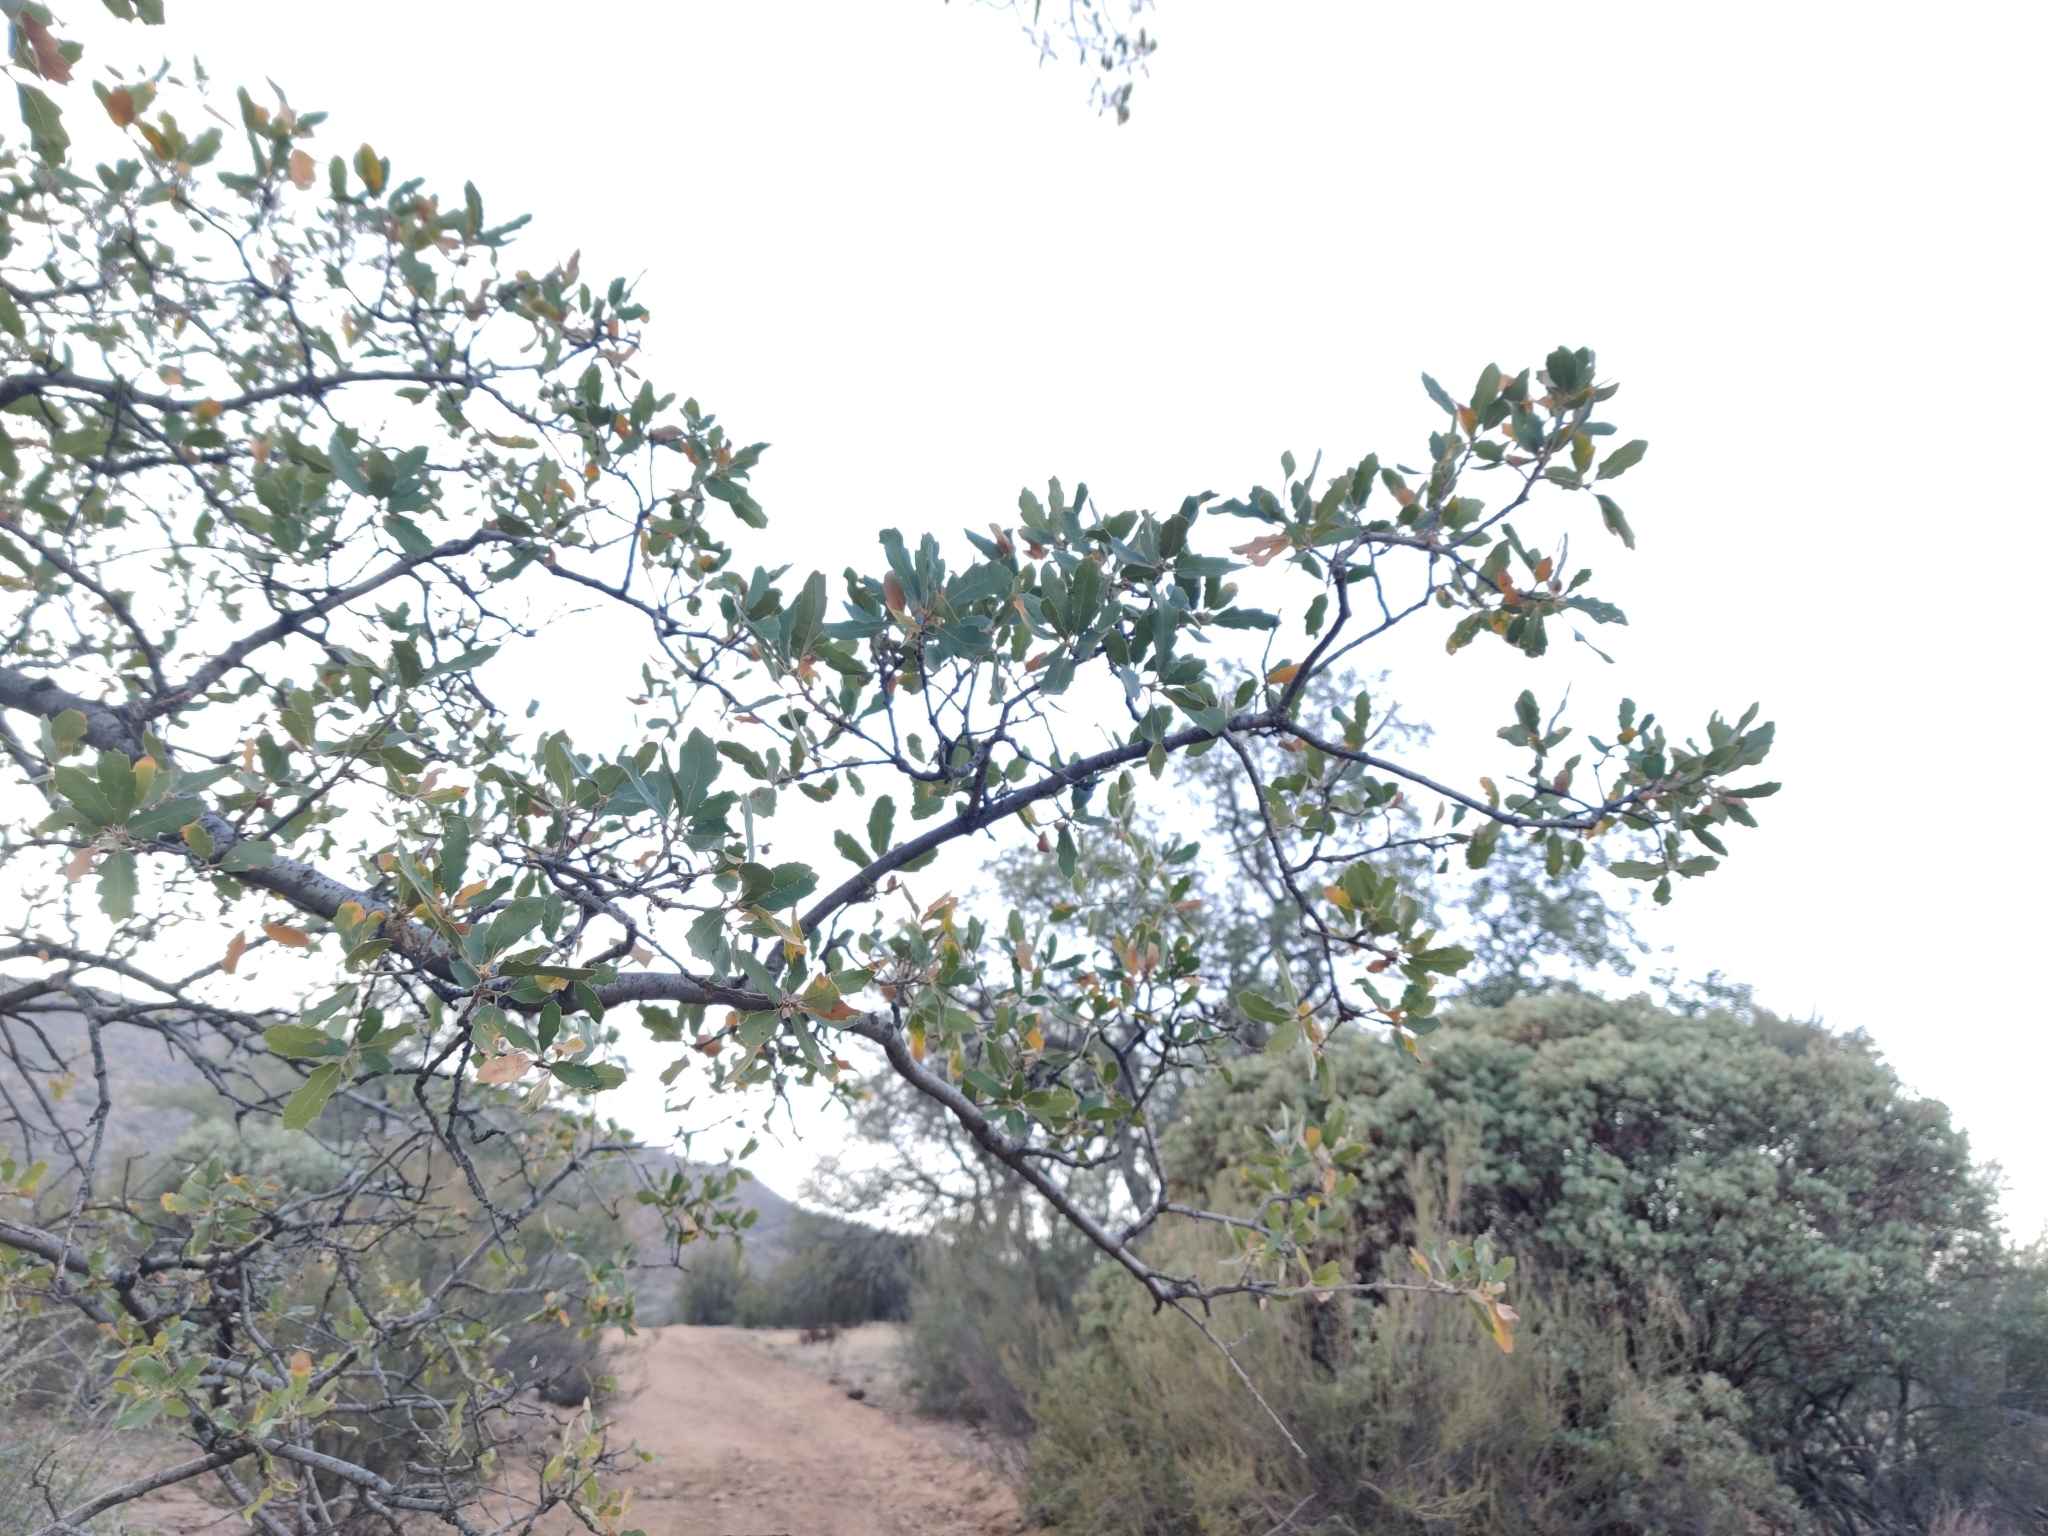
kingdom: Plantae
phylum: Tracheophyta
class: Magnoliopsida
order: Fagales
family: Fagaceae
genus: Quercus
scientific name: Quercus douglasii
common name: Blue oak
